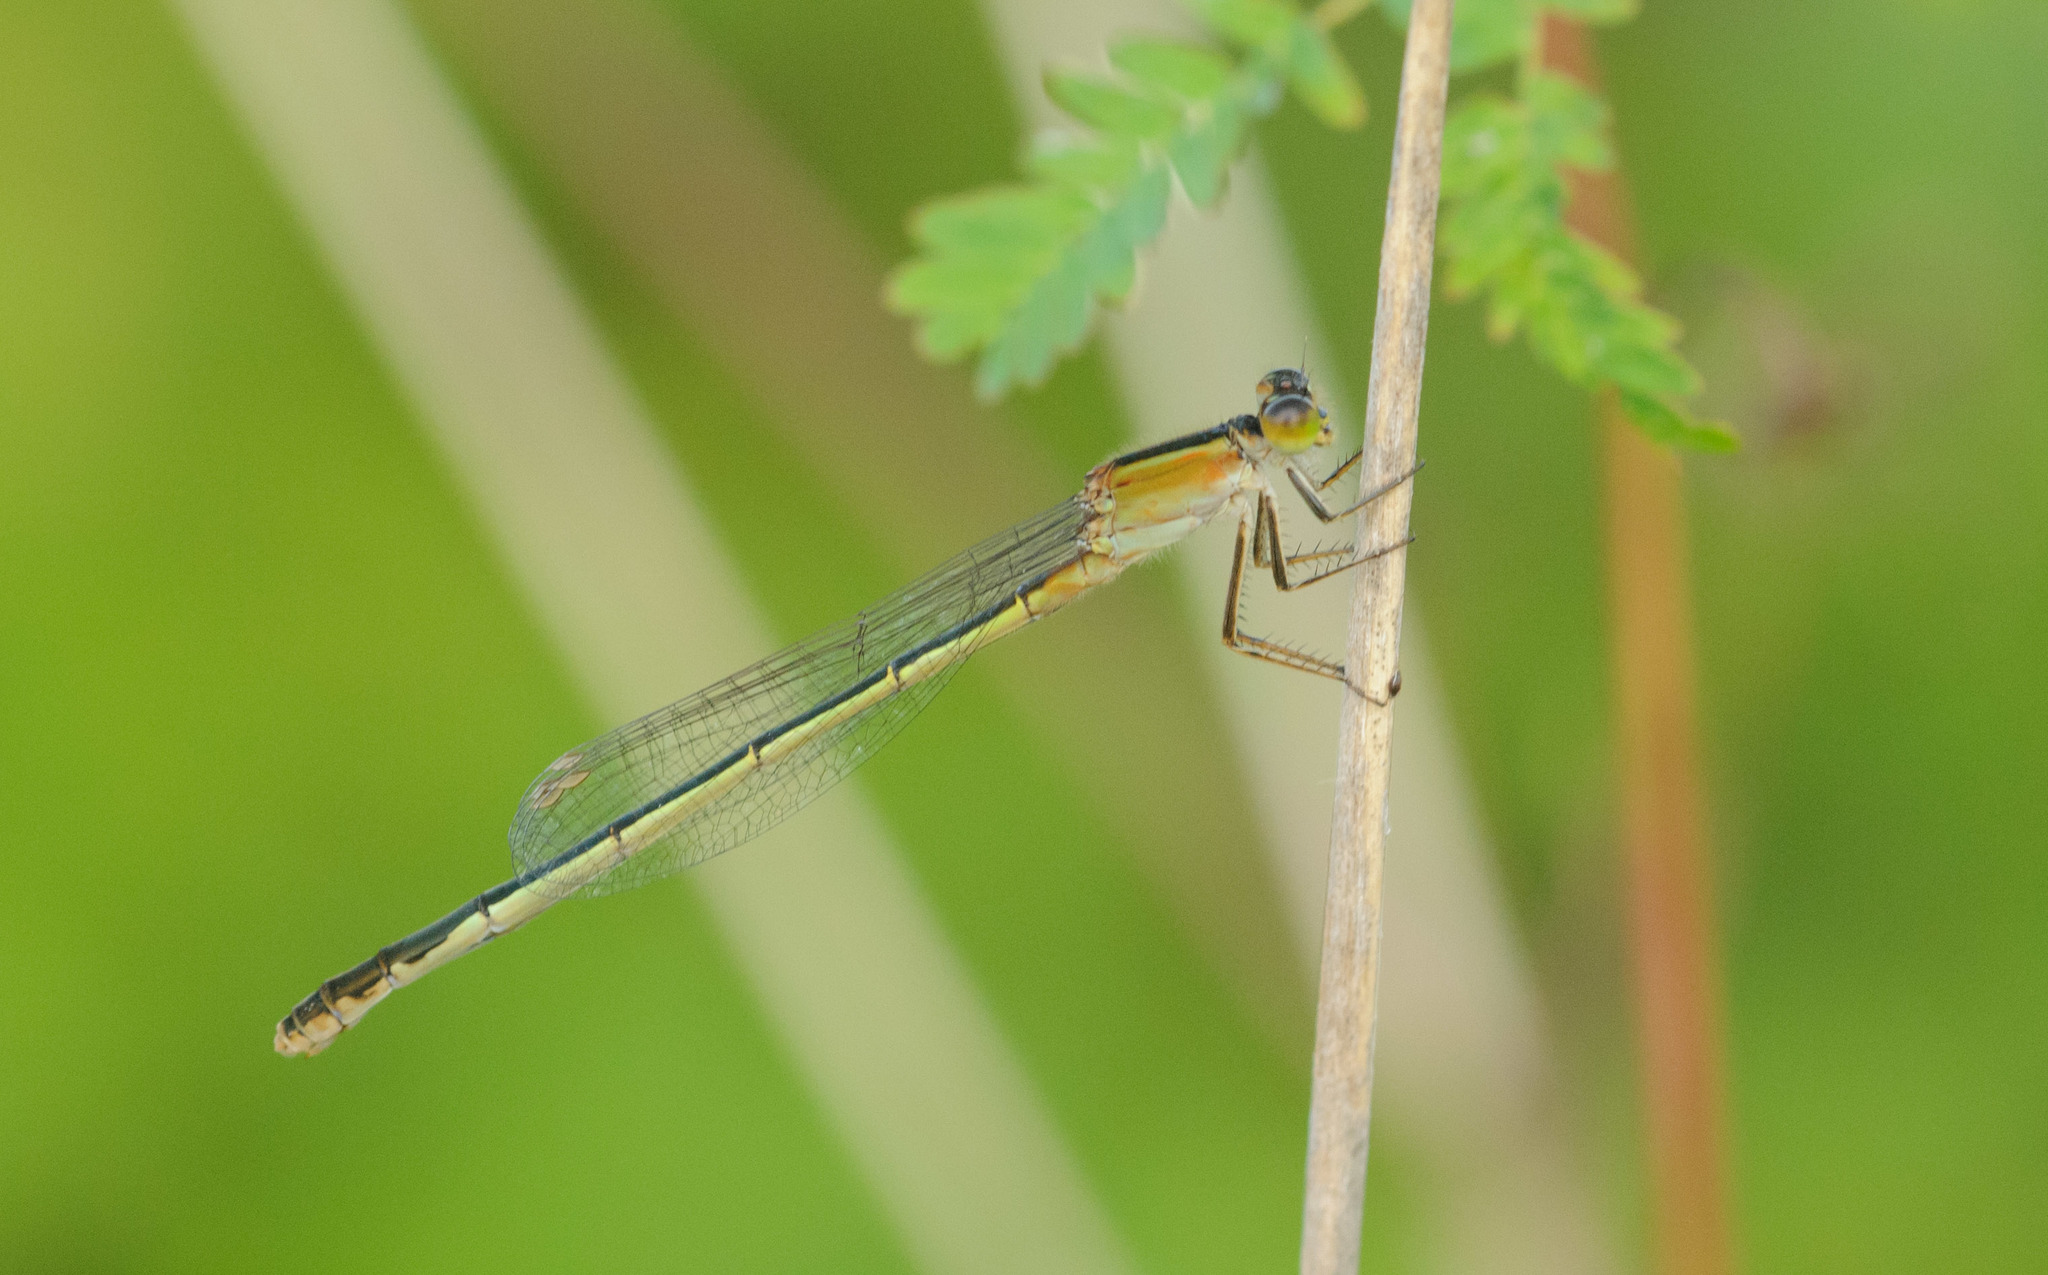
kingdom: Animalia
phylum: Arthropoda
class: Insecta
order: Odonata
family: Coenagrionidae
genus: Ischnura
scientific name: Ischnura ramburii
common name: Rambur's forktail
